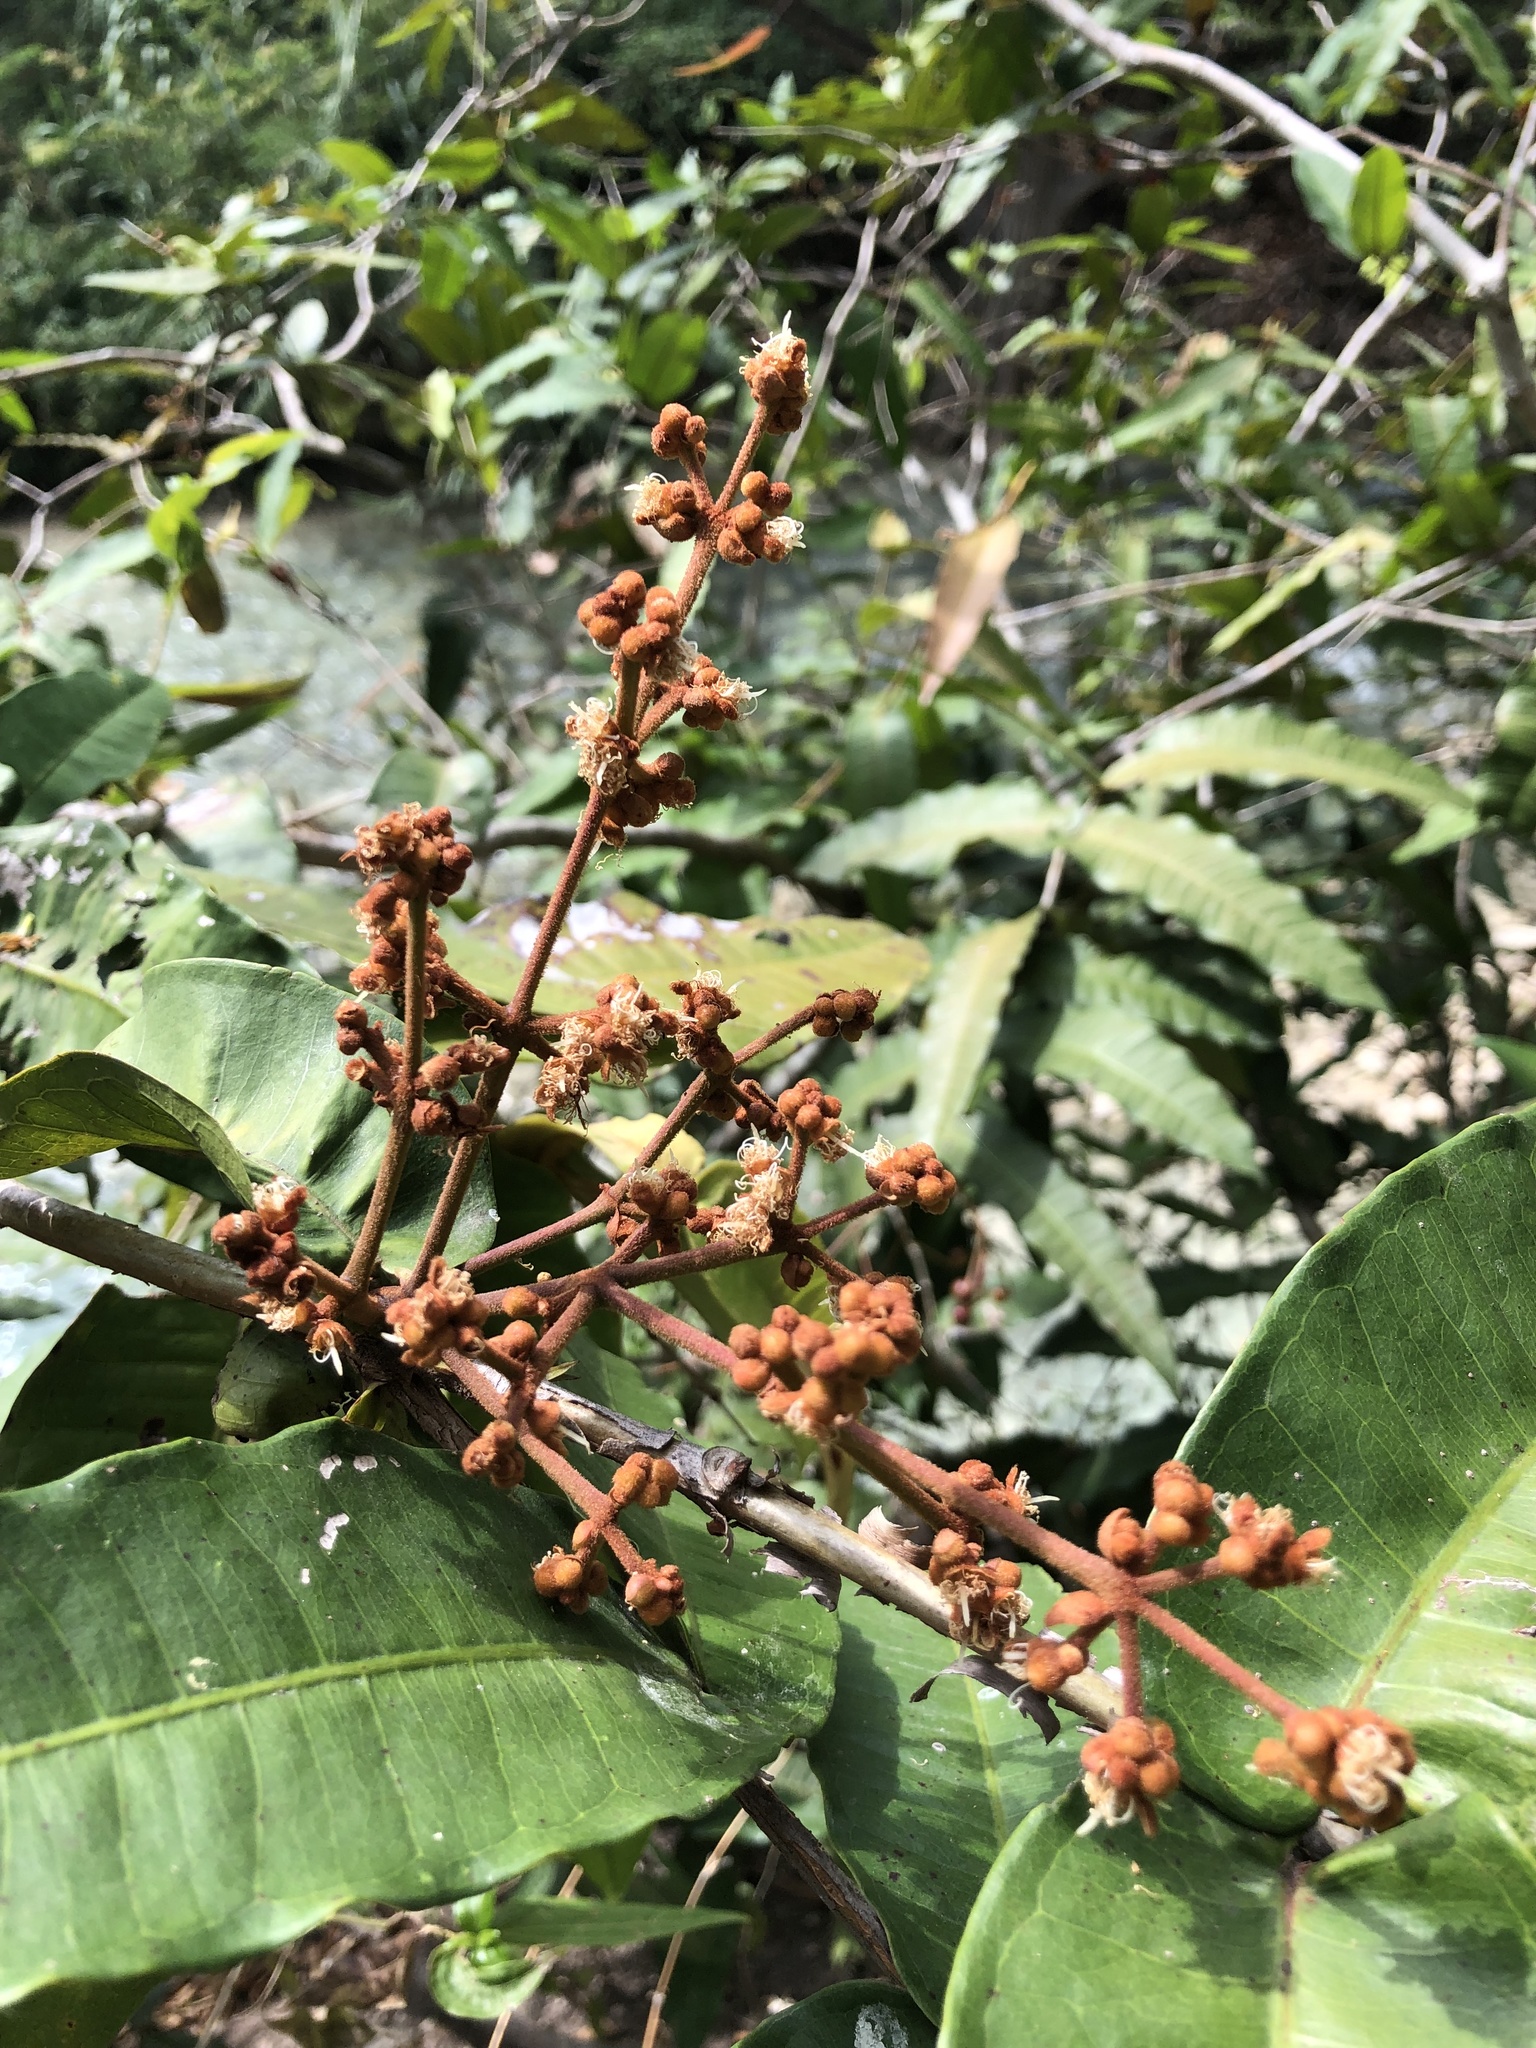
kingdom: Plantae
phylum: Tracheophyta
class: Magnoliopsida
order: Myrtales
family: Myrtaceae
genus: Myrcia
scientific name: Myrcia chiapensis
